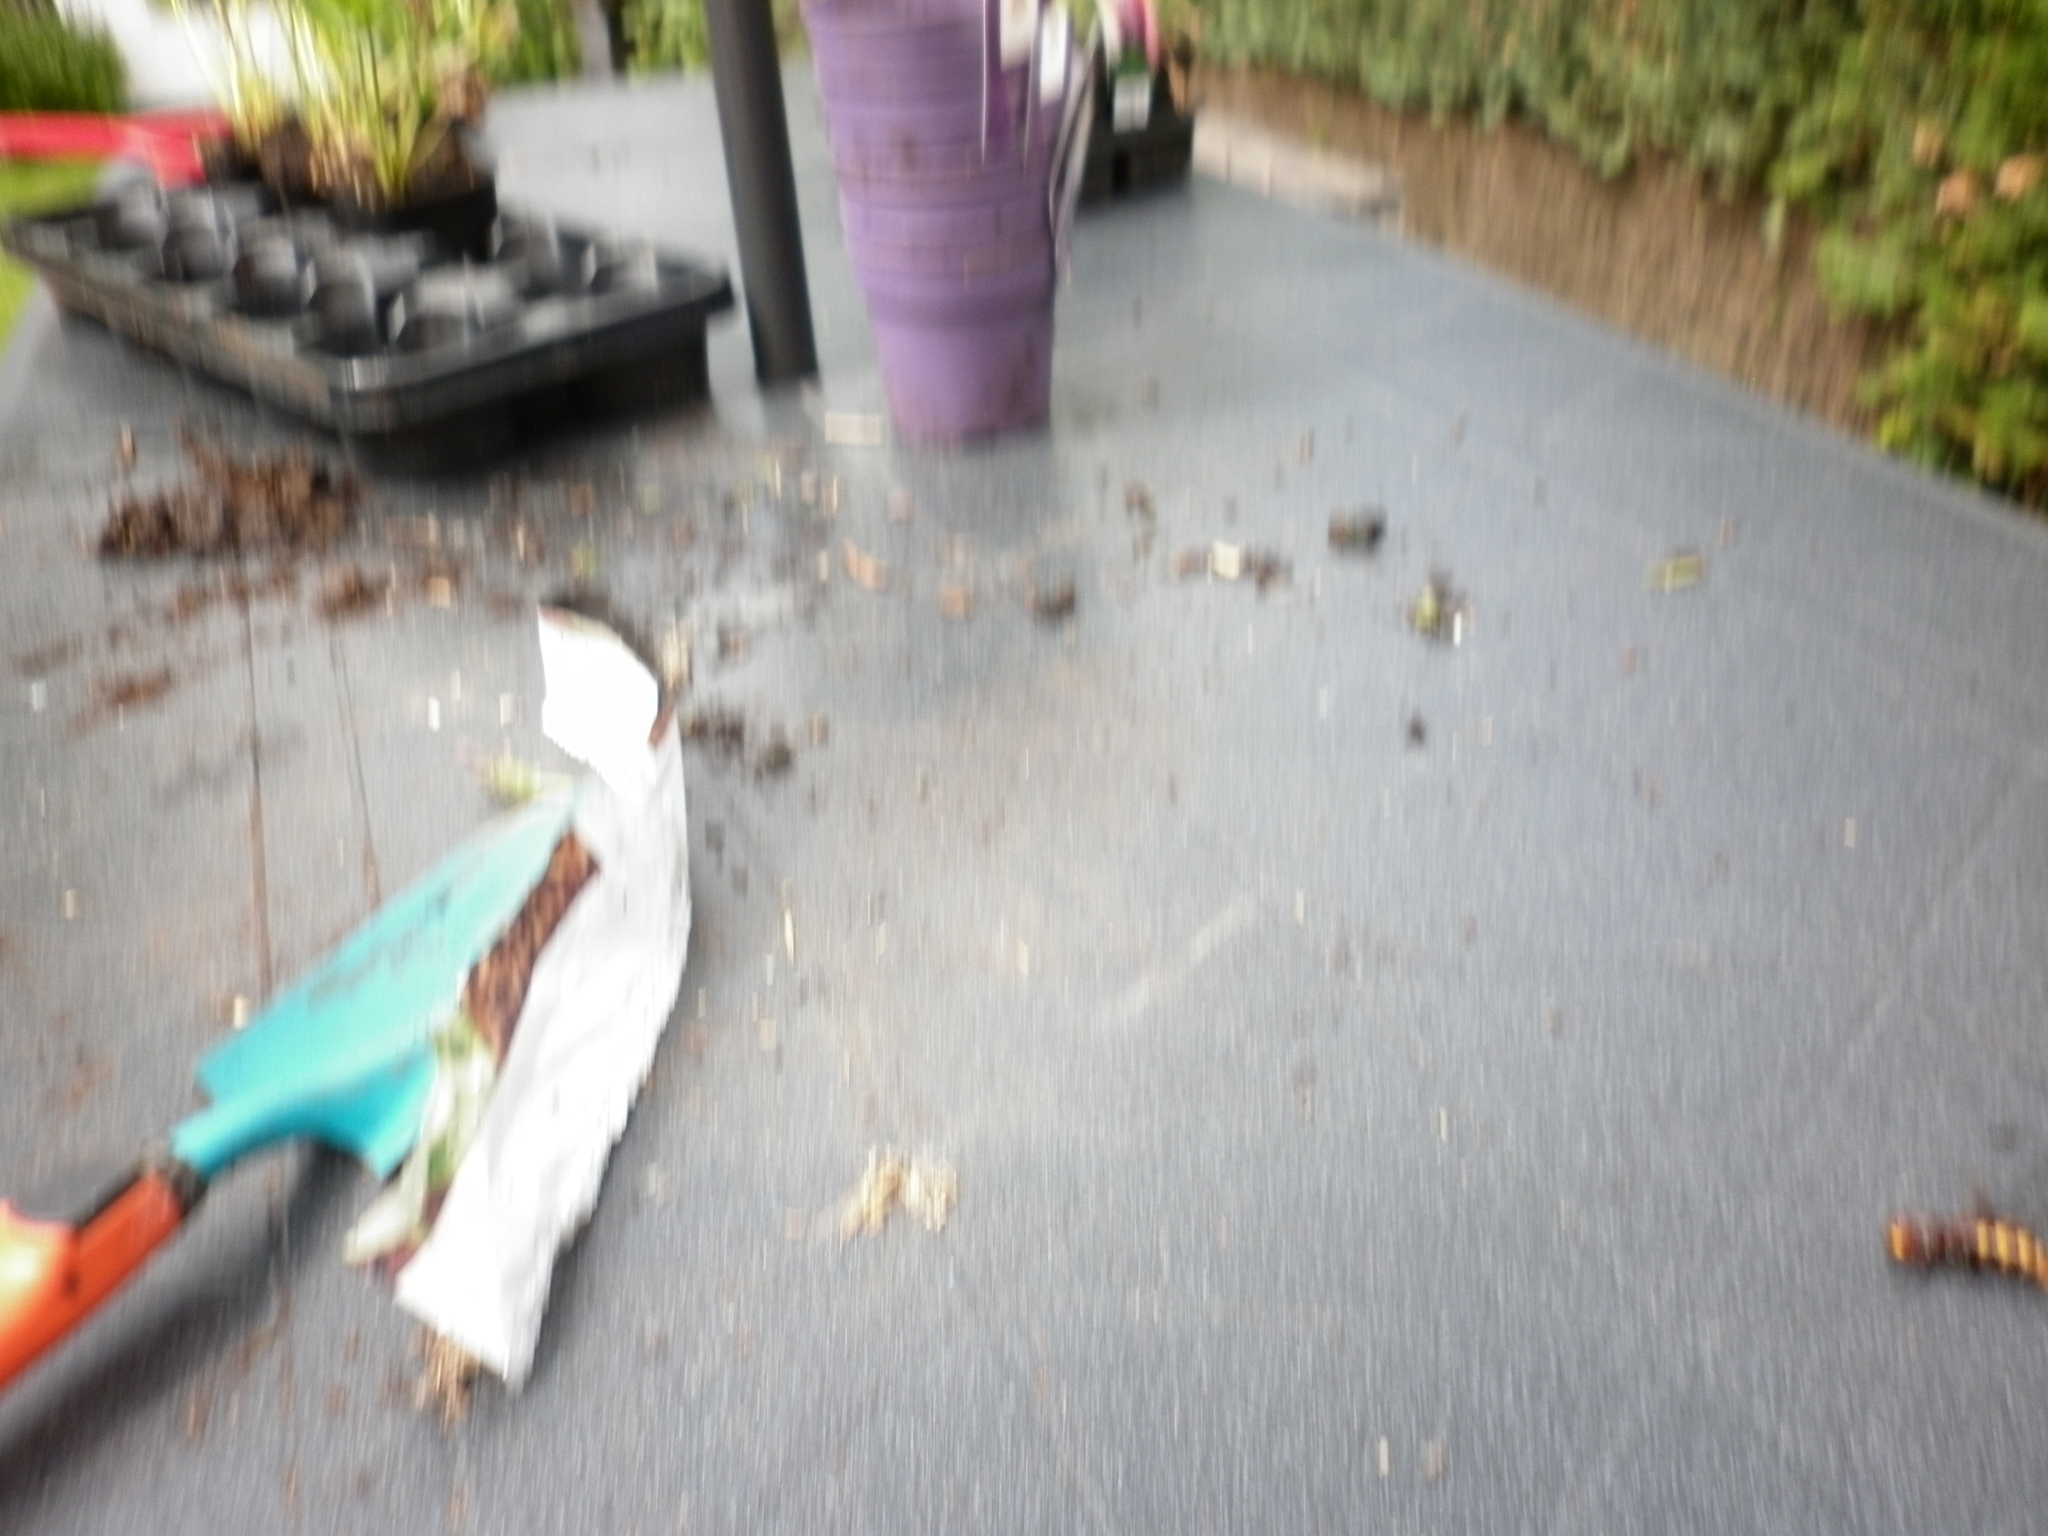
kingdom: Animalia
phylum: Arthropoda
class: Insecta
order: Hymenoptera
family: Vespidae
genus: Vespa
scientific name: Vespa crabro
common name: Hornet
